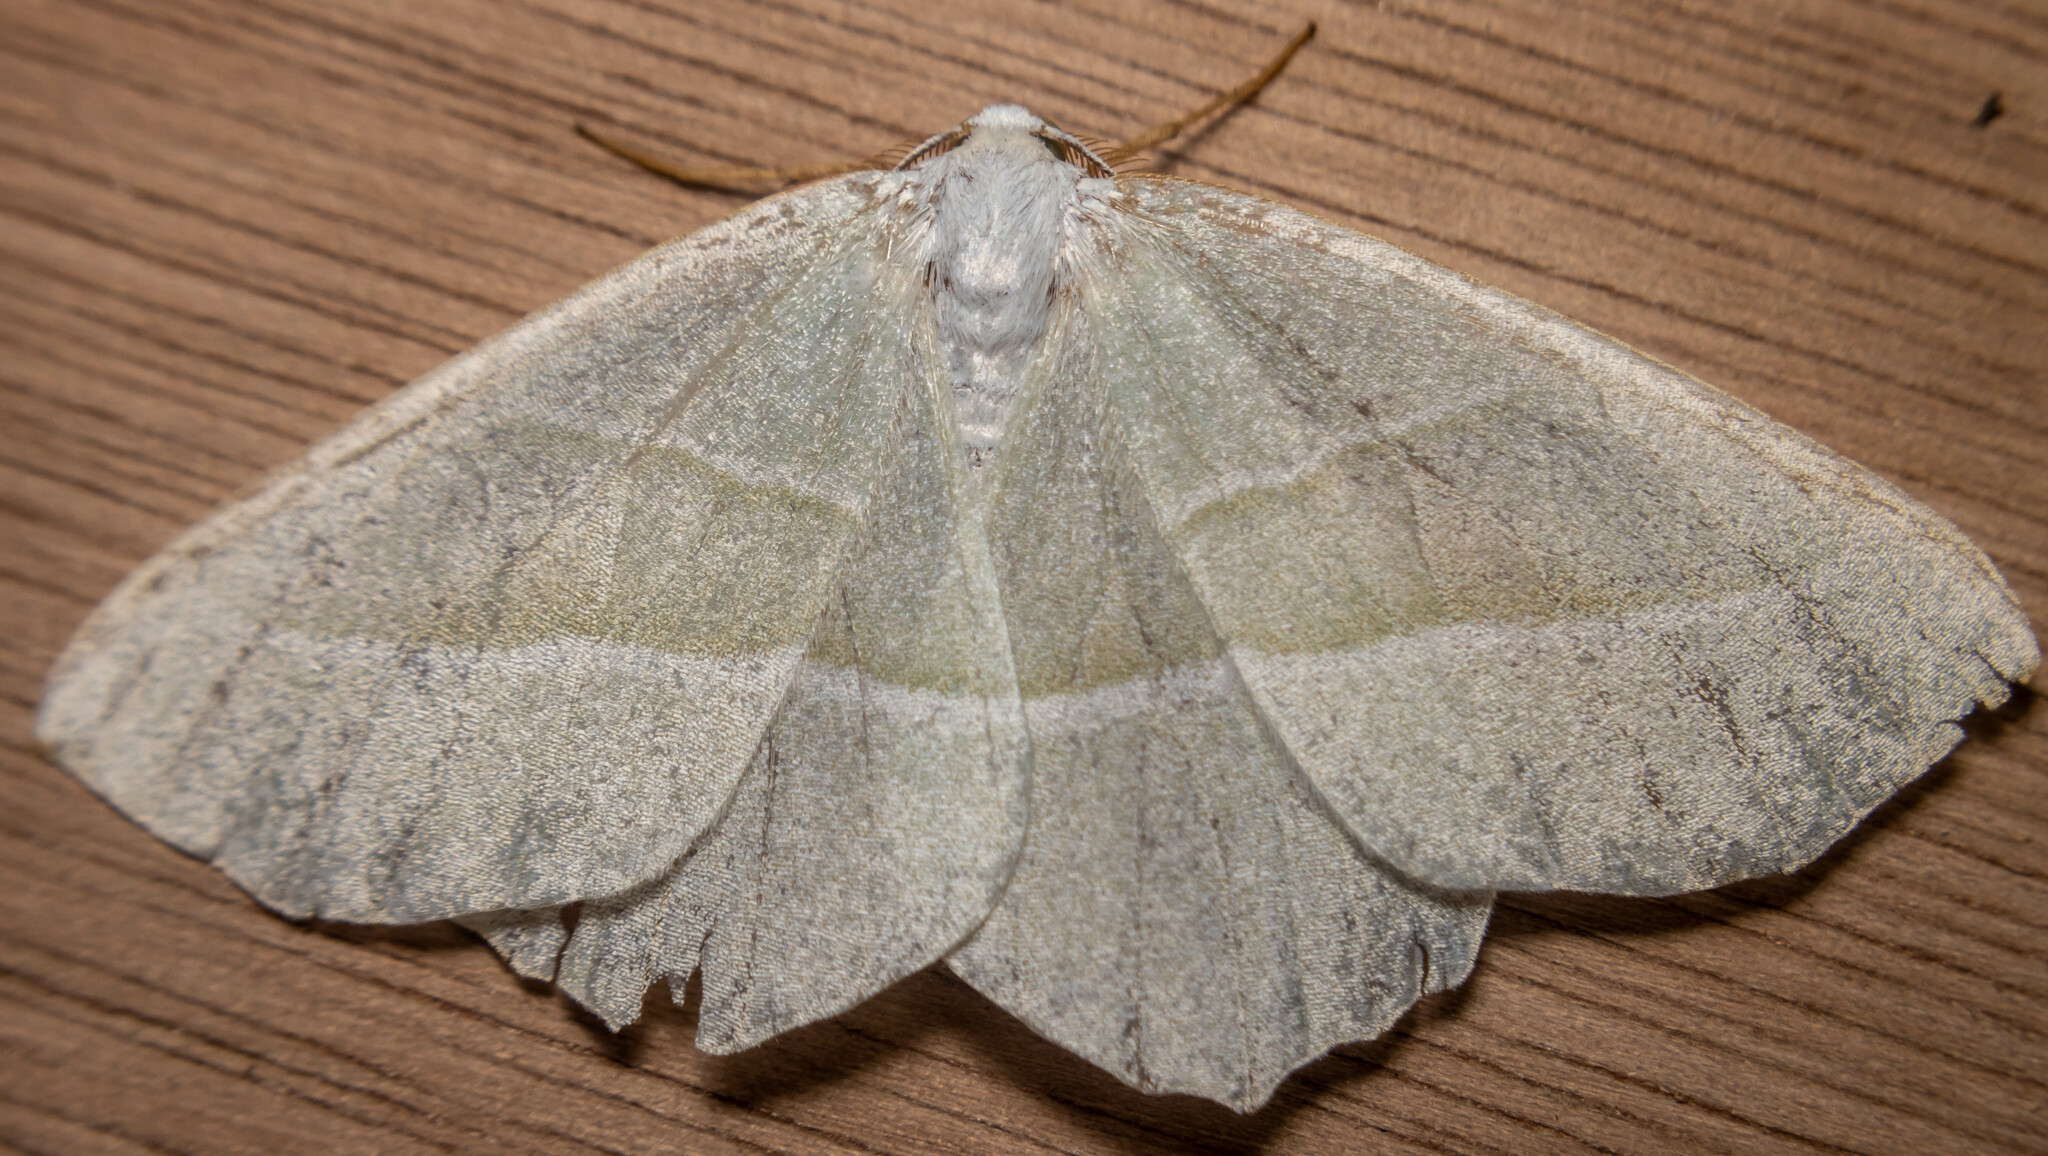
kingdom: Animalia
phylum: Arthropoda
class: Insecta
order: Lepidoptera
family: Geometridae
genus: Campaea
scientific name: Campaea margaritaria
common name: Light emerald
